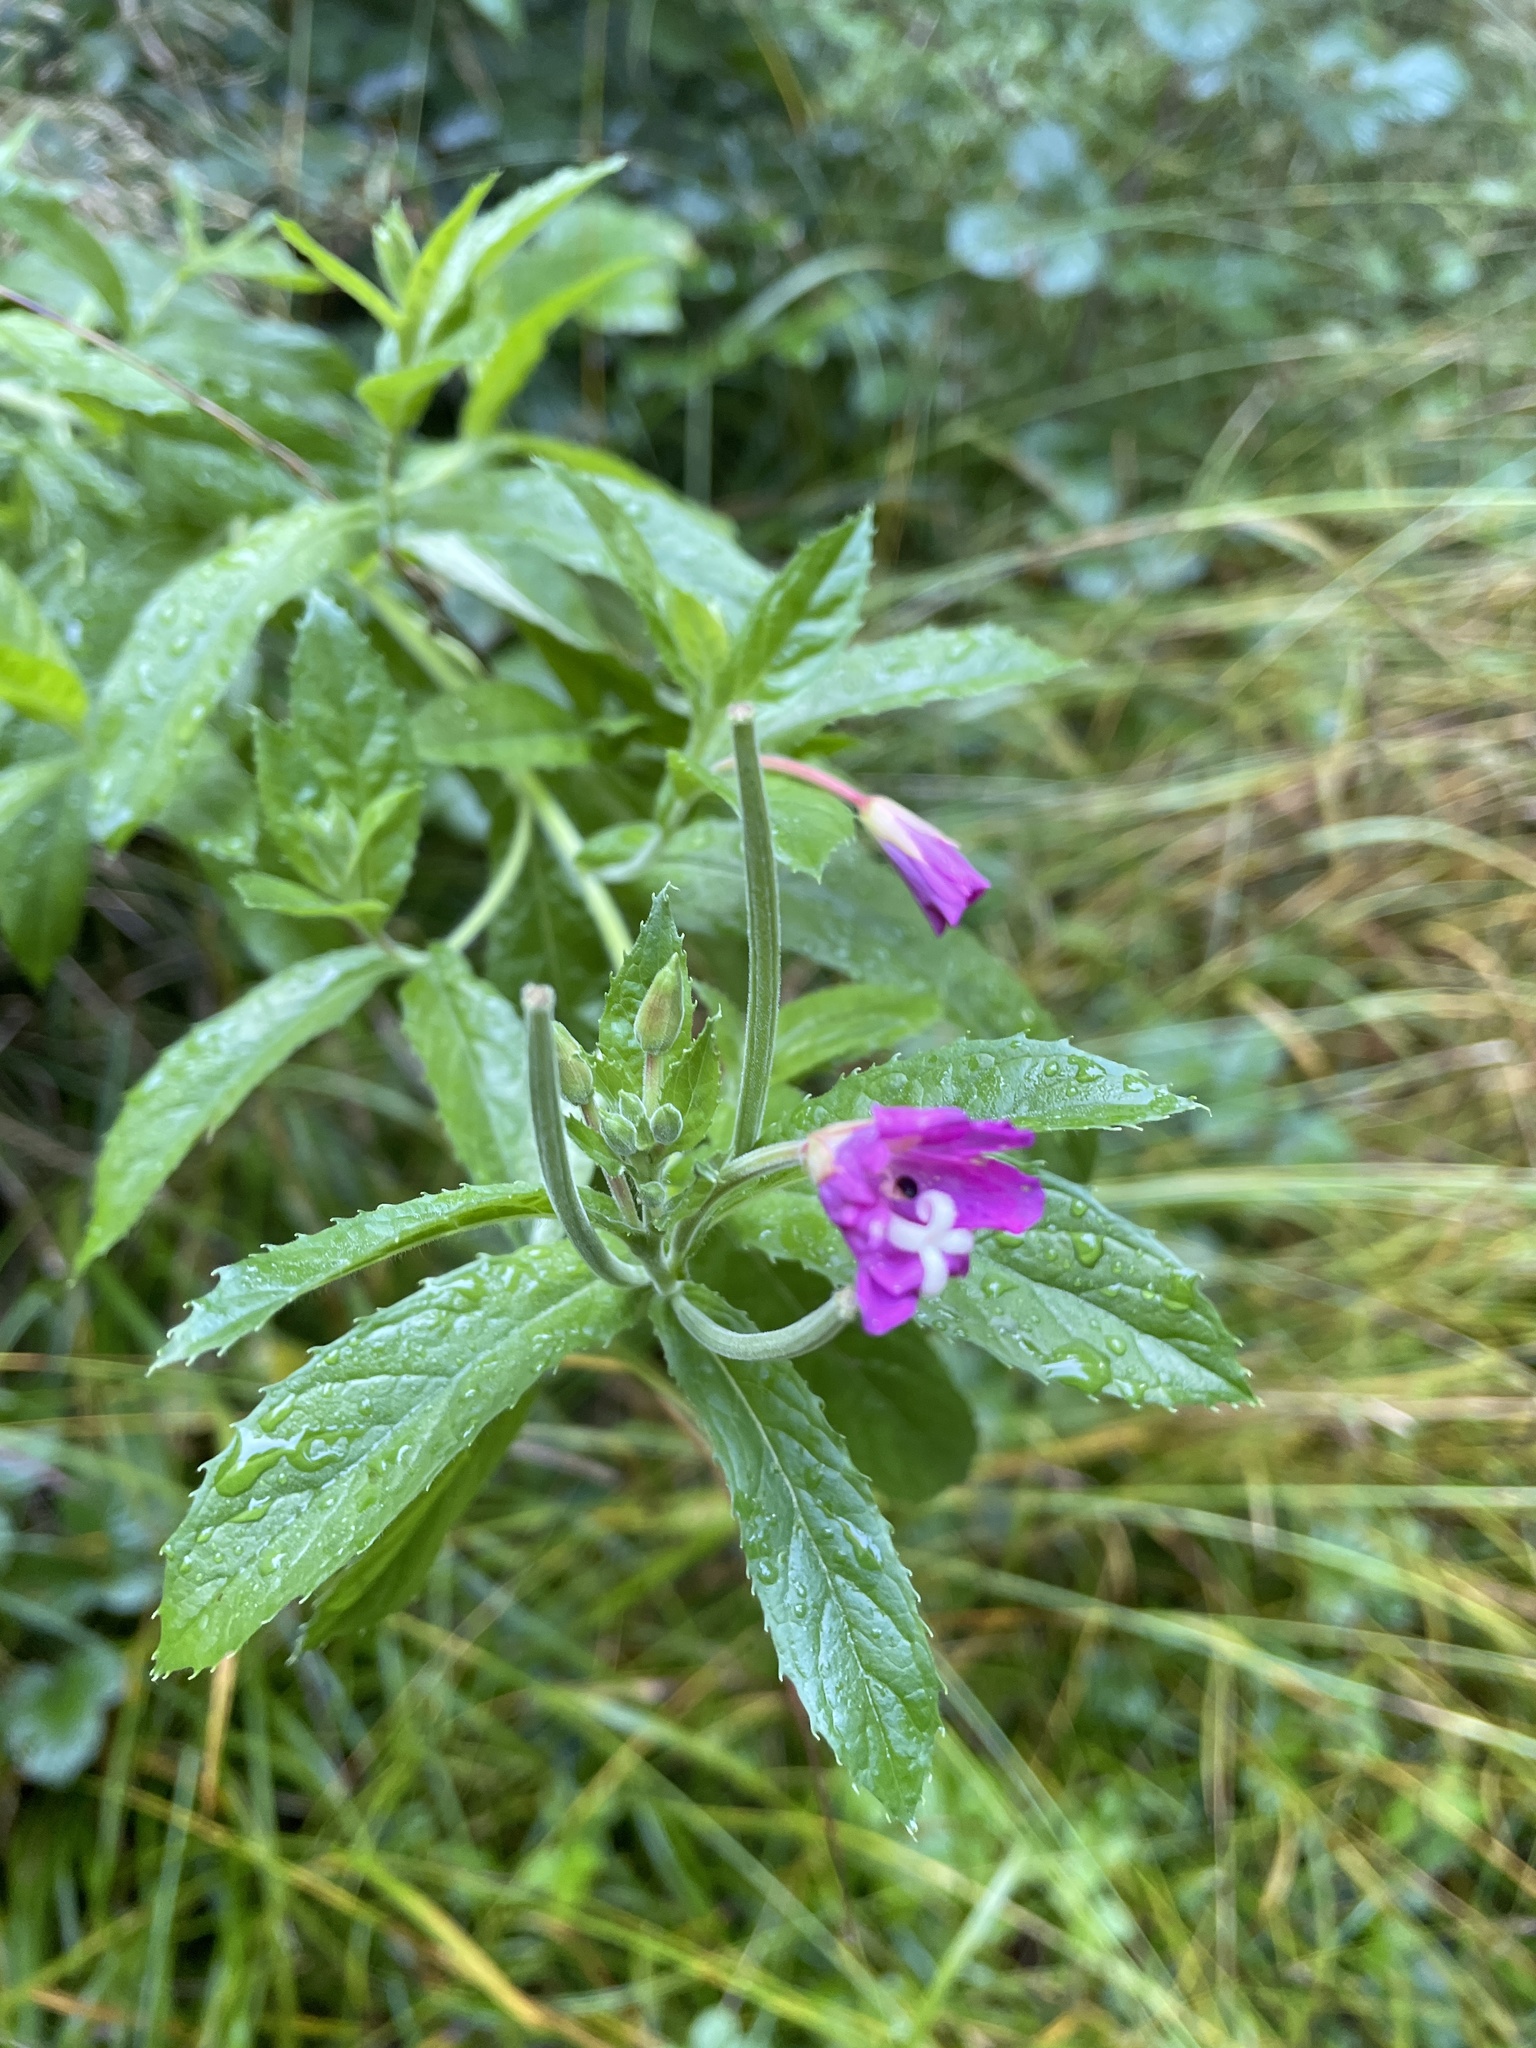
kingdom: Plantae
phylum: Tracheophyta
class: Magnoliopsida
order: Myrtales
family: Onagraceae
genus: Epilobium
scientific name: Epilobium hirsutum
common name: Great willowherb
